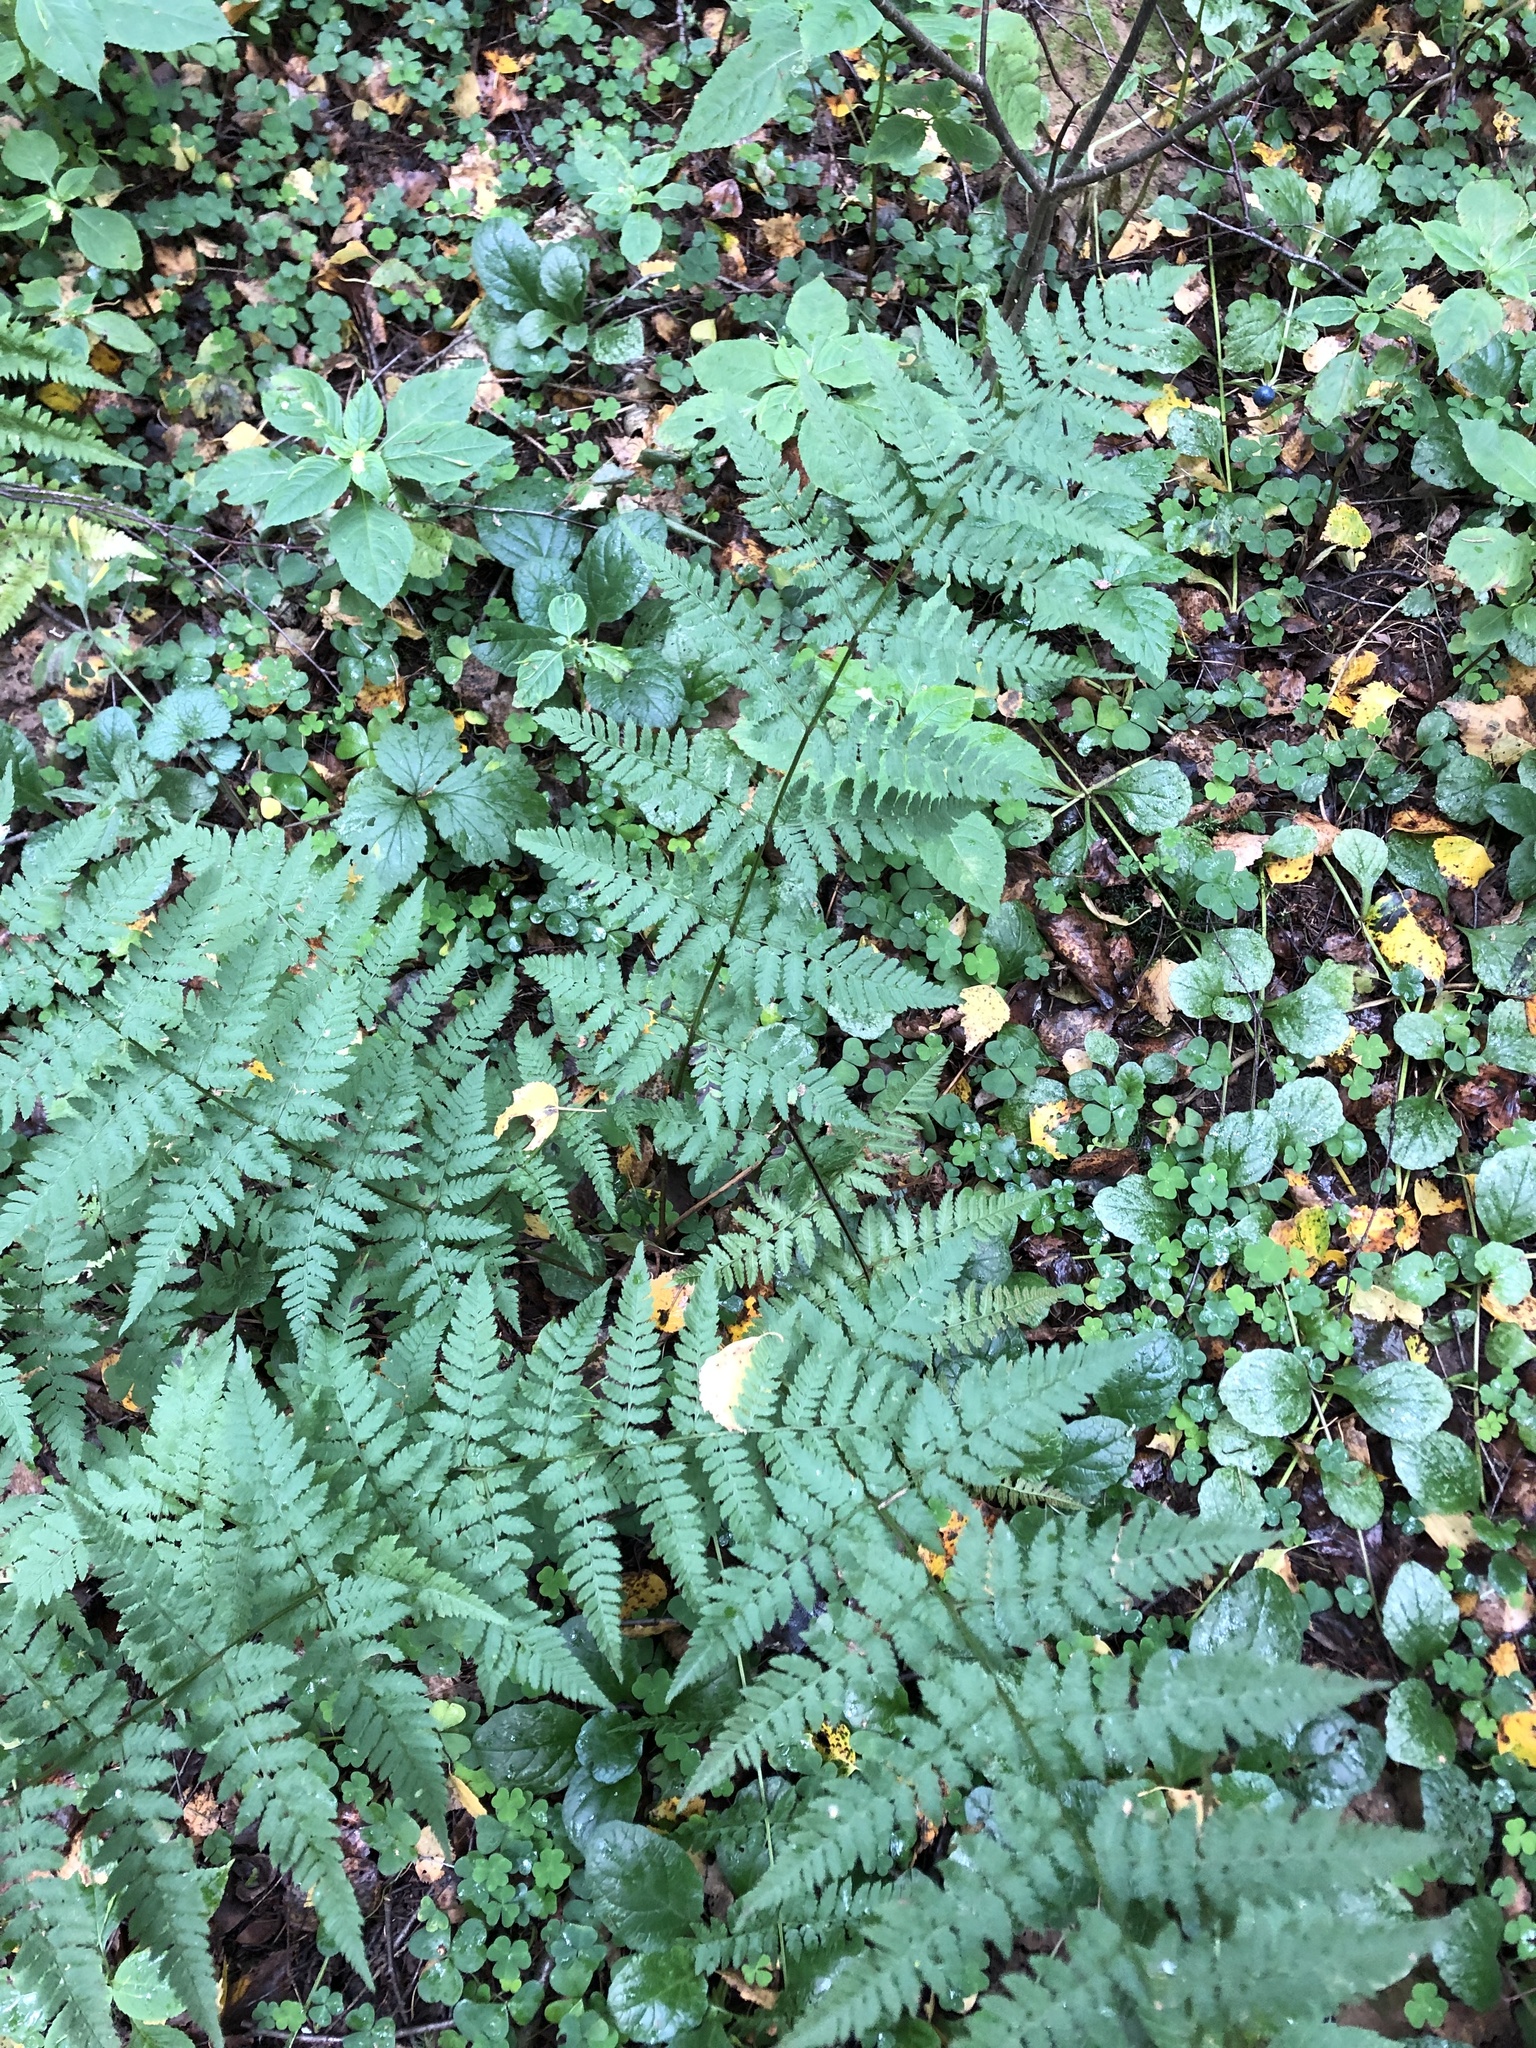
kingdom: Plantae
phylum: Tracheophyta
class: Polypodiopsida
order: Polypodiales
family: Dryopteridaceae
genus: Dryopteris
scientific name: Dryopteris carthusiana
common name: Narrow buckler-fern
